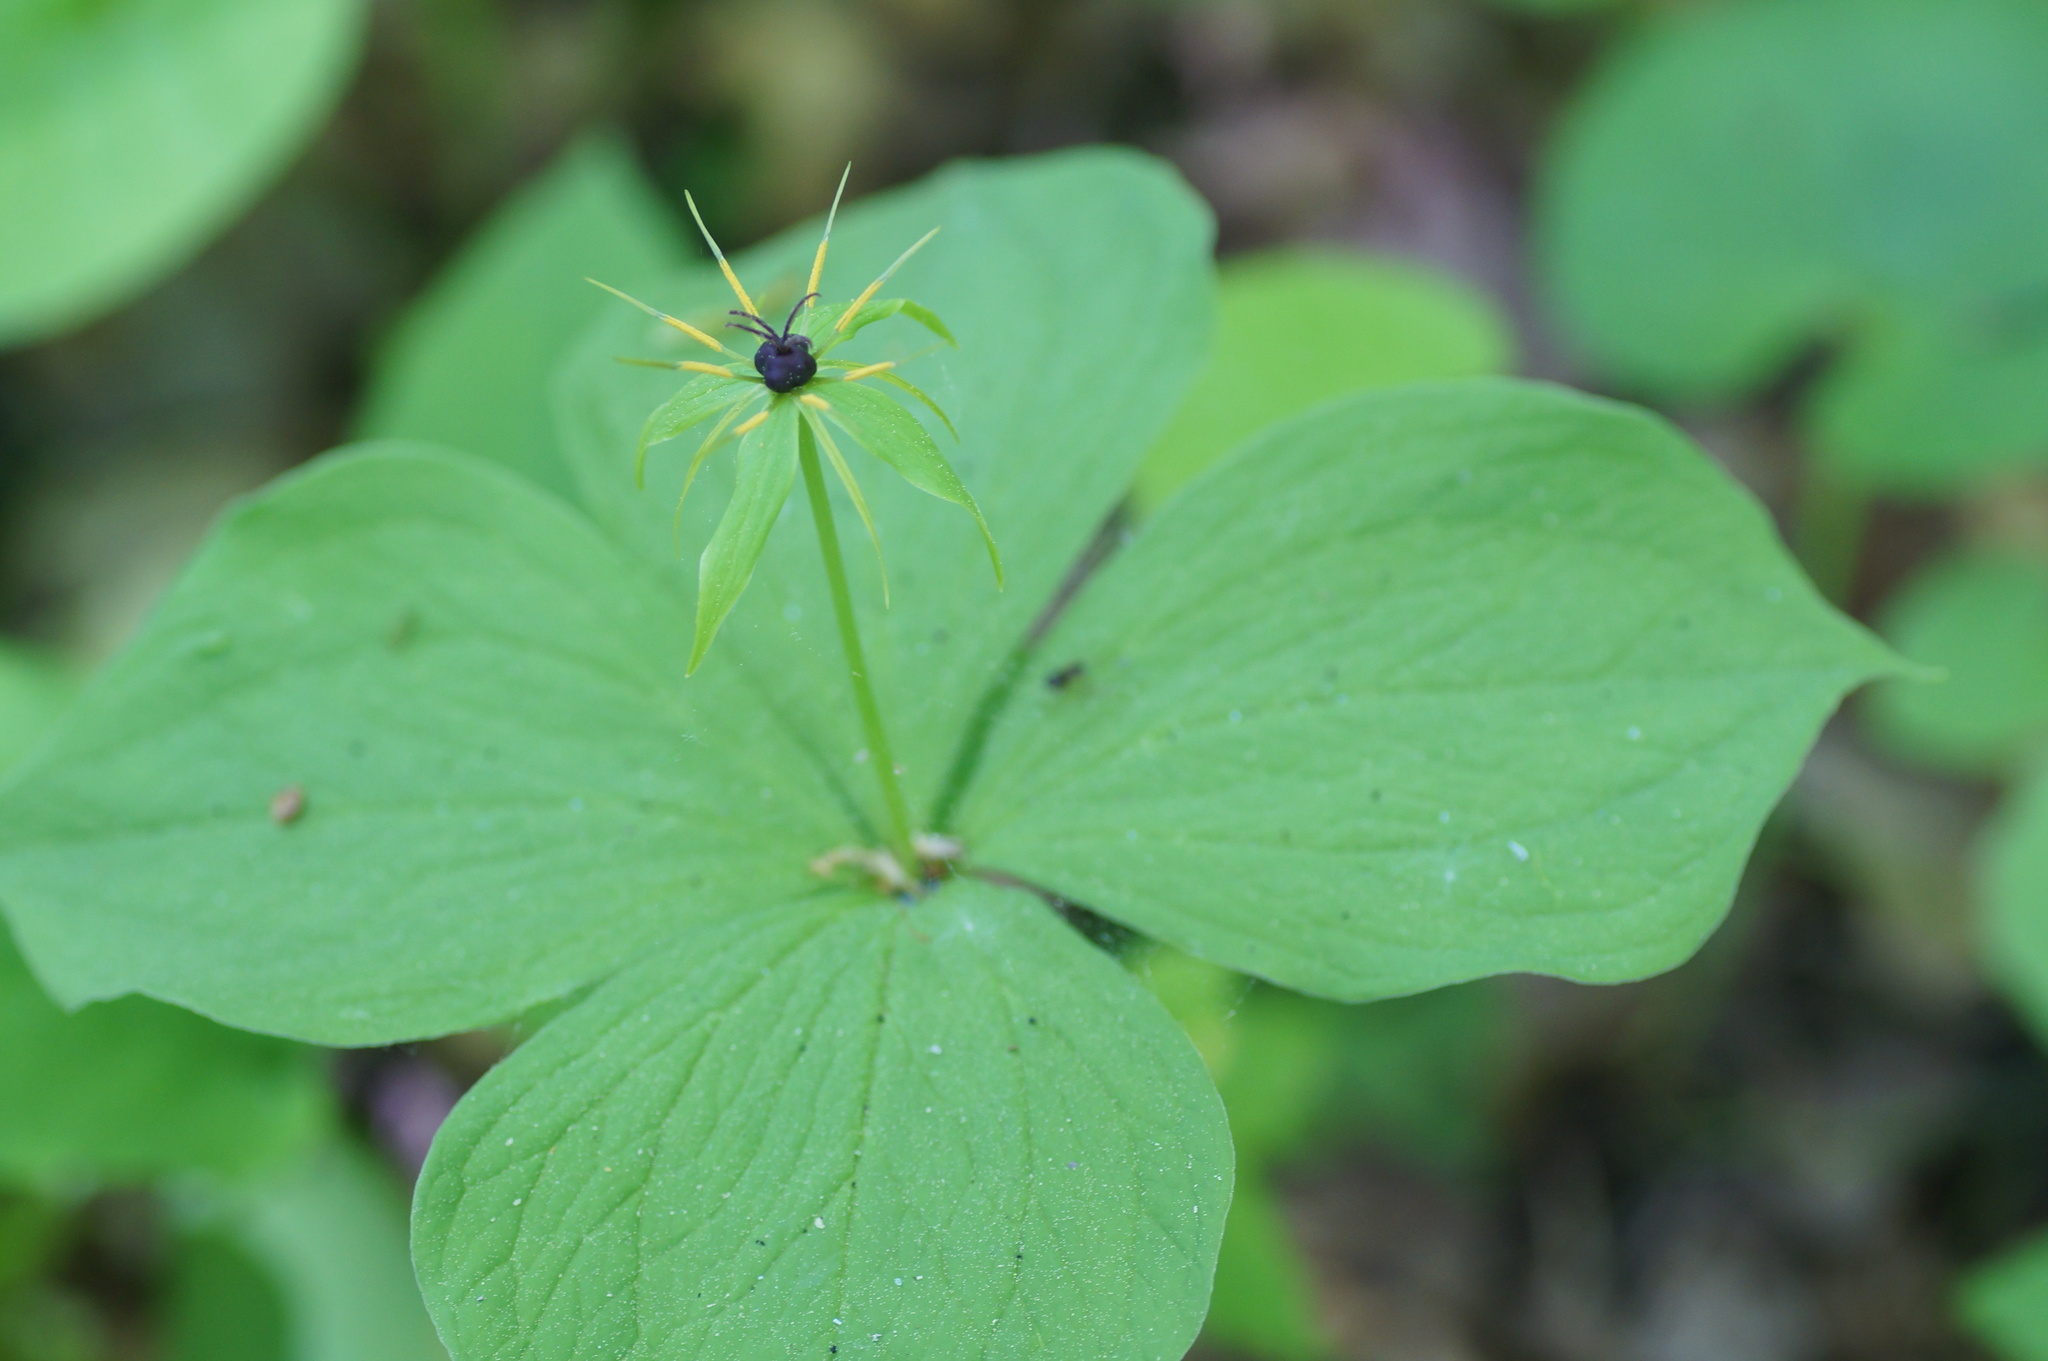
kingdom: Plantae
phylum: Tracheophyta
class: Liliopsida
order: Liliales
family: Melanthiaceae
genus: Paris
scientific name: Paris quadrifolia
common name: Herb-paris
